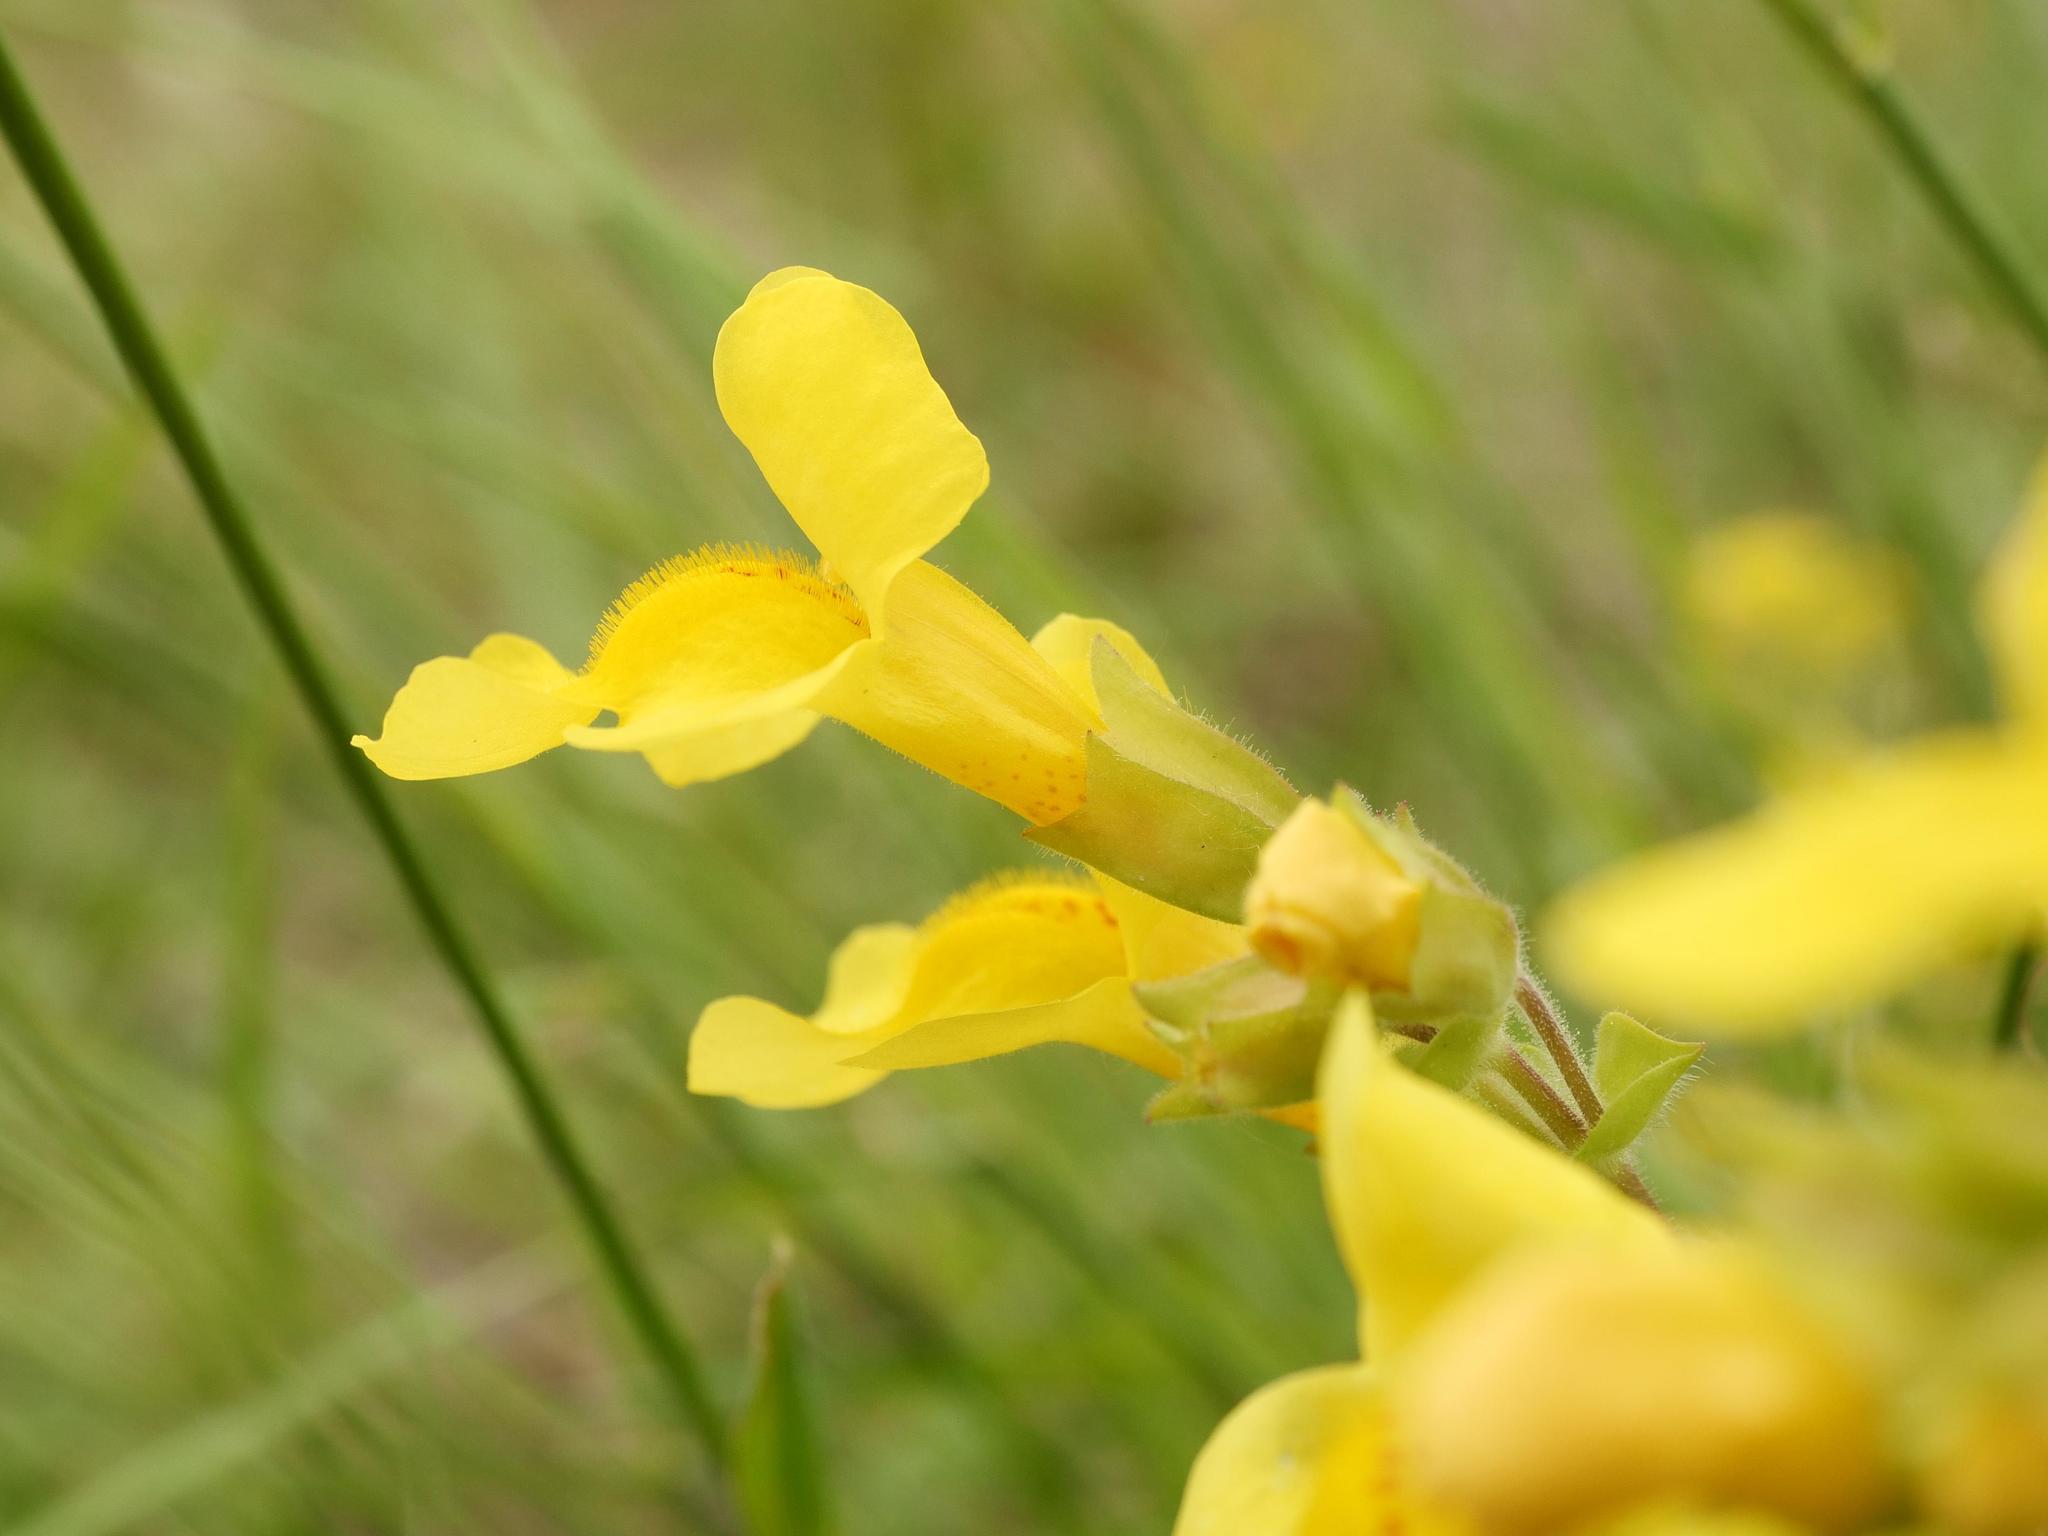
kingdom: Plantae
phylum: Tracheophyta
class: Magnoliopsida
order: Lamiales
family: Phrymaceae
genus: Erythranthe
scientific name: Erythranthe guttata
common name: Monkeyflower
